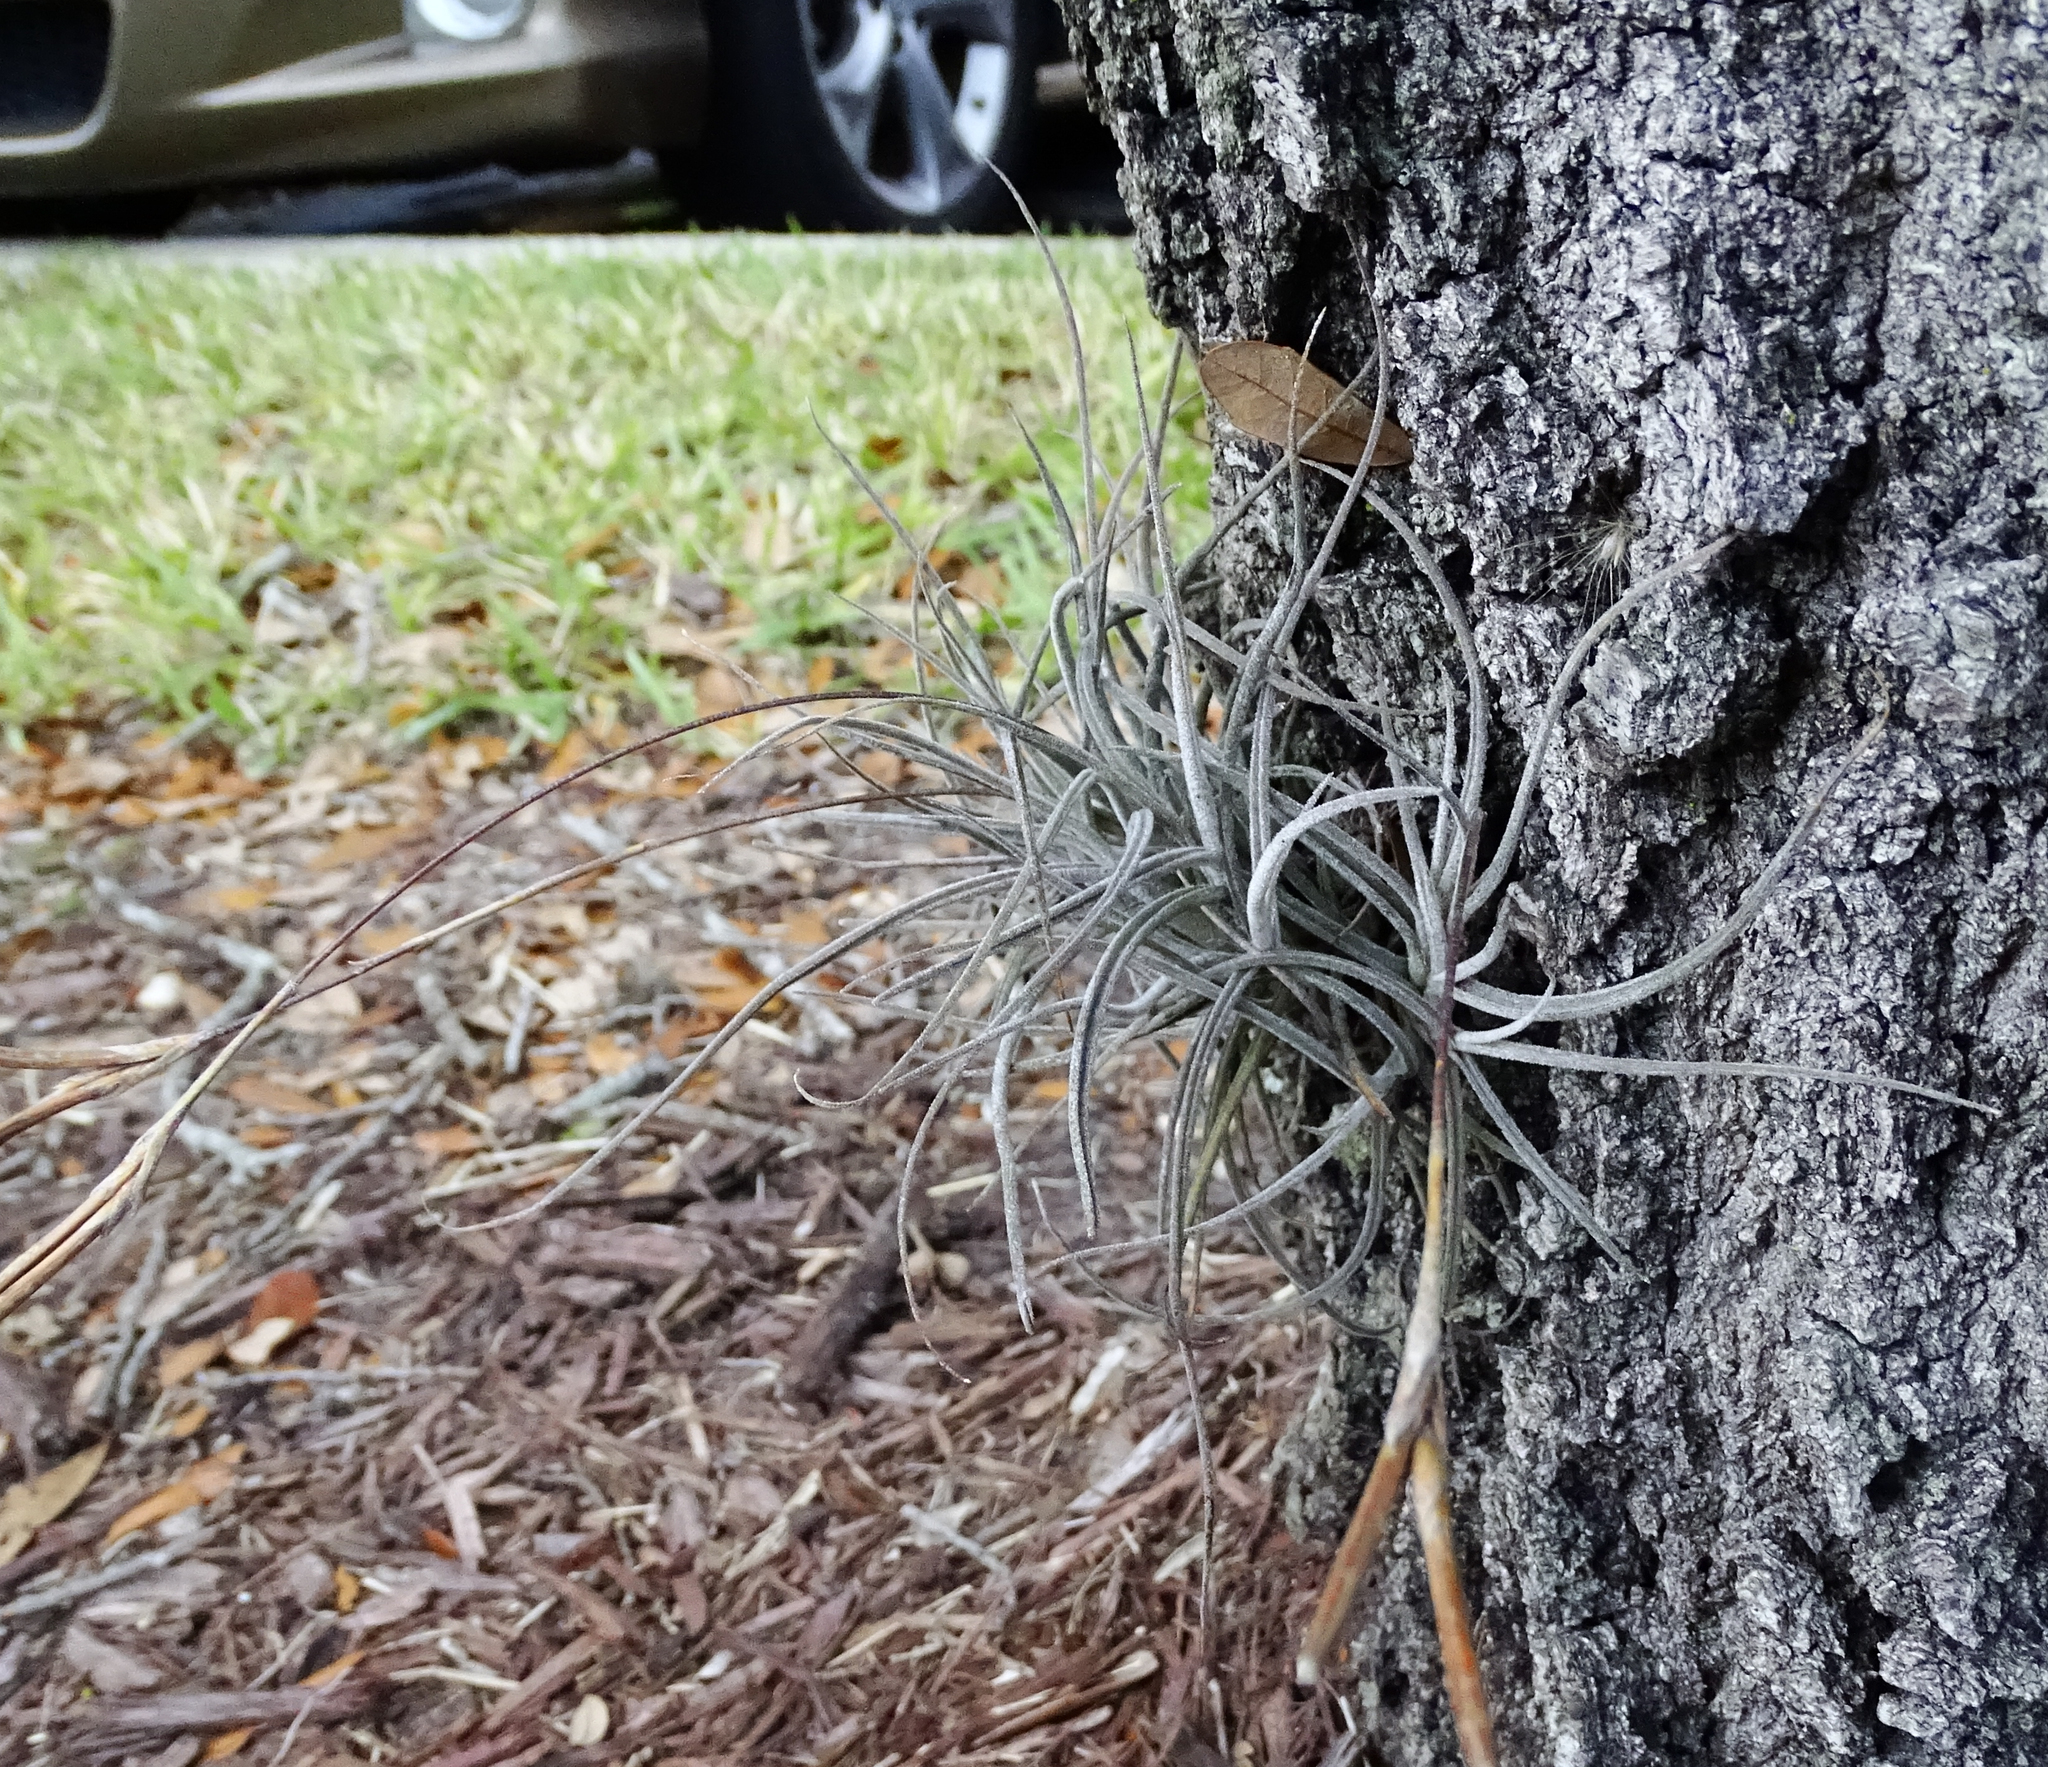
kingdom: Plantae
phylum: Tracheophyta
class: Liliopsida
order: Poales
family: Bromeliaceae
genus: Tillandsia
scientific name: Tillandsia recurvata
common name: Small ballmoss
